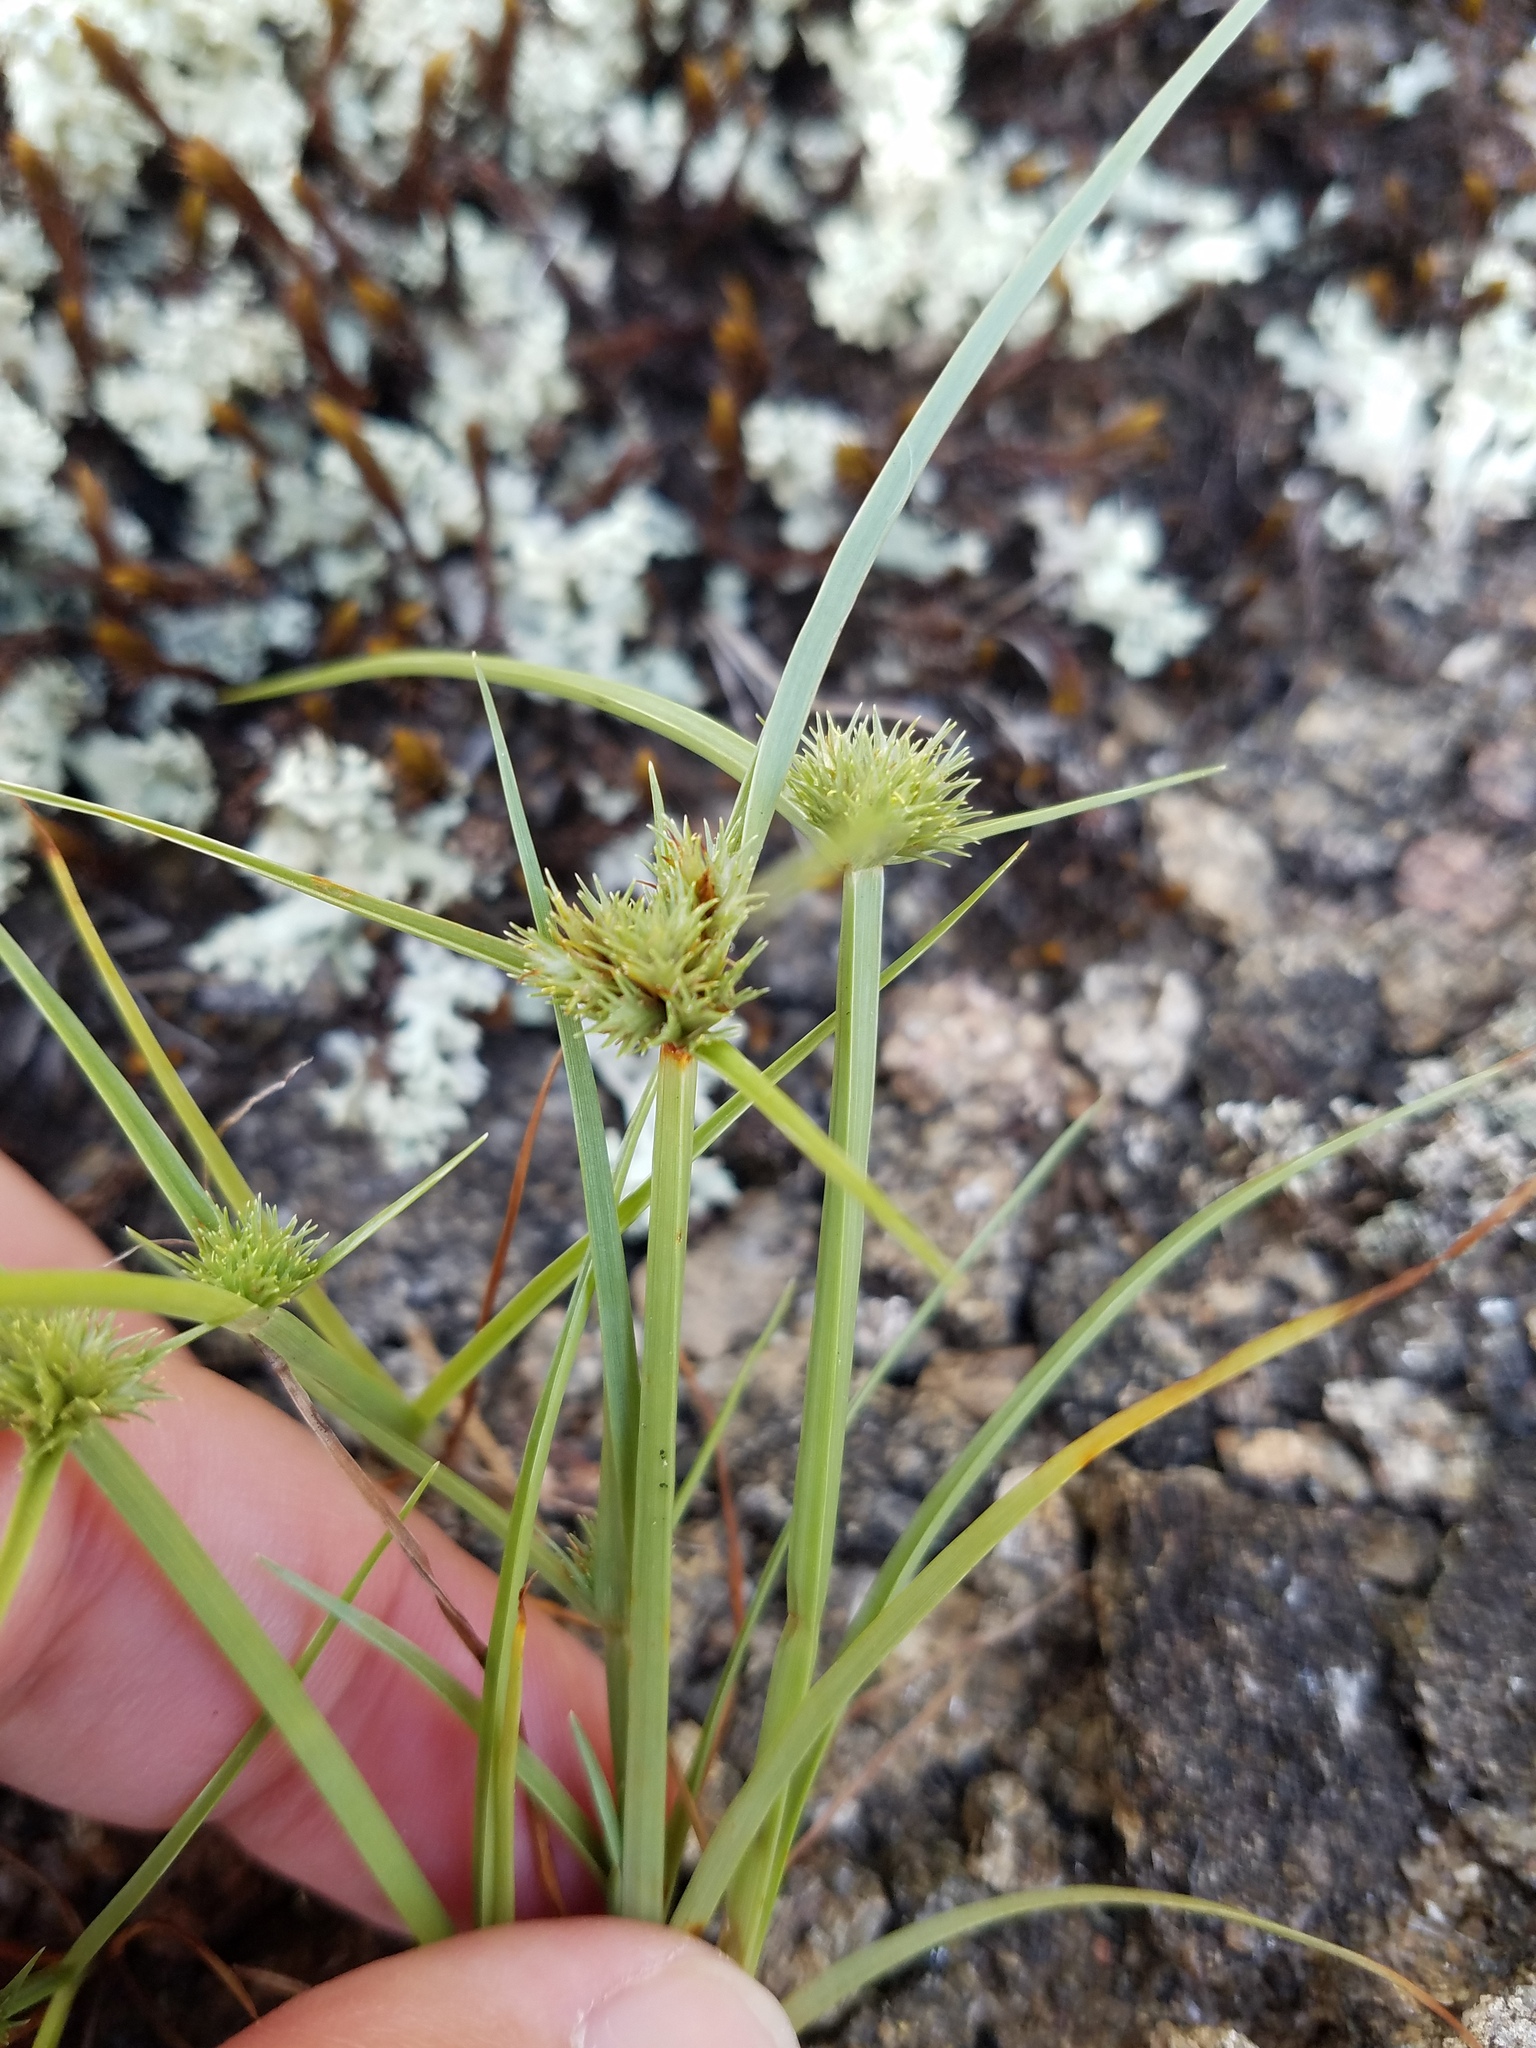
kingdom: Plantae
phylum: Tracheophyta
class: Liliopsida
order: Poales
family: Cyperaceae
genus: Cyperus
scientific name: Cyperus granitophilus
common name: Granite flatsedge
